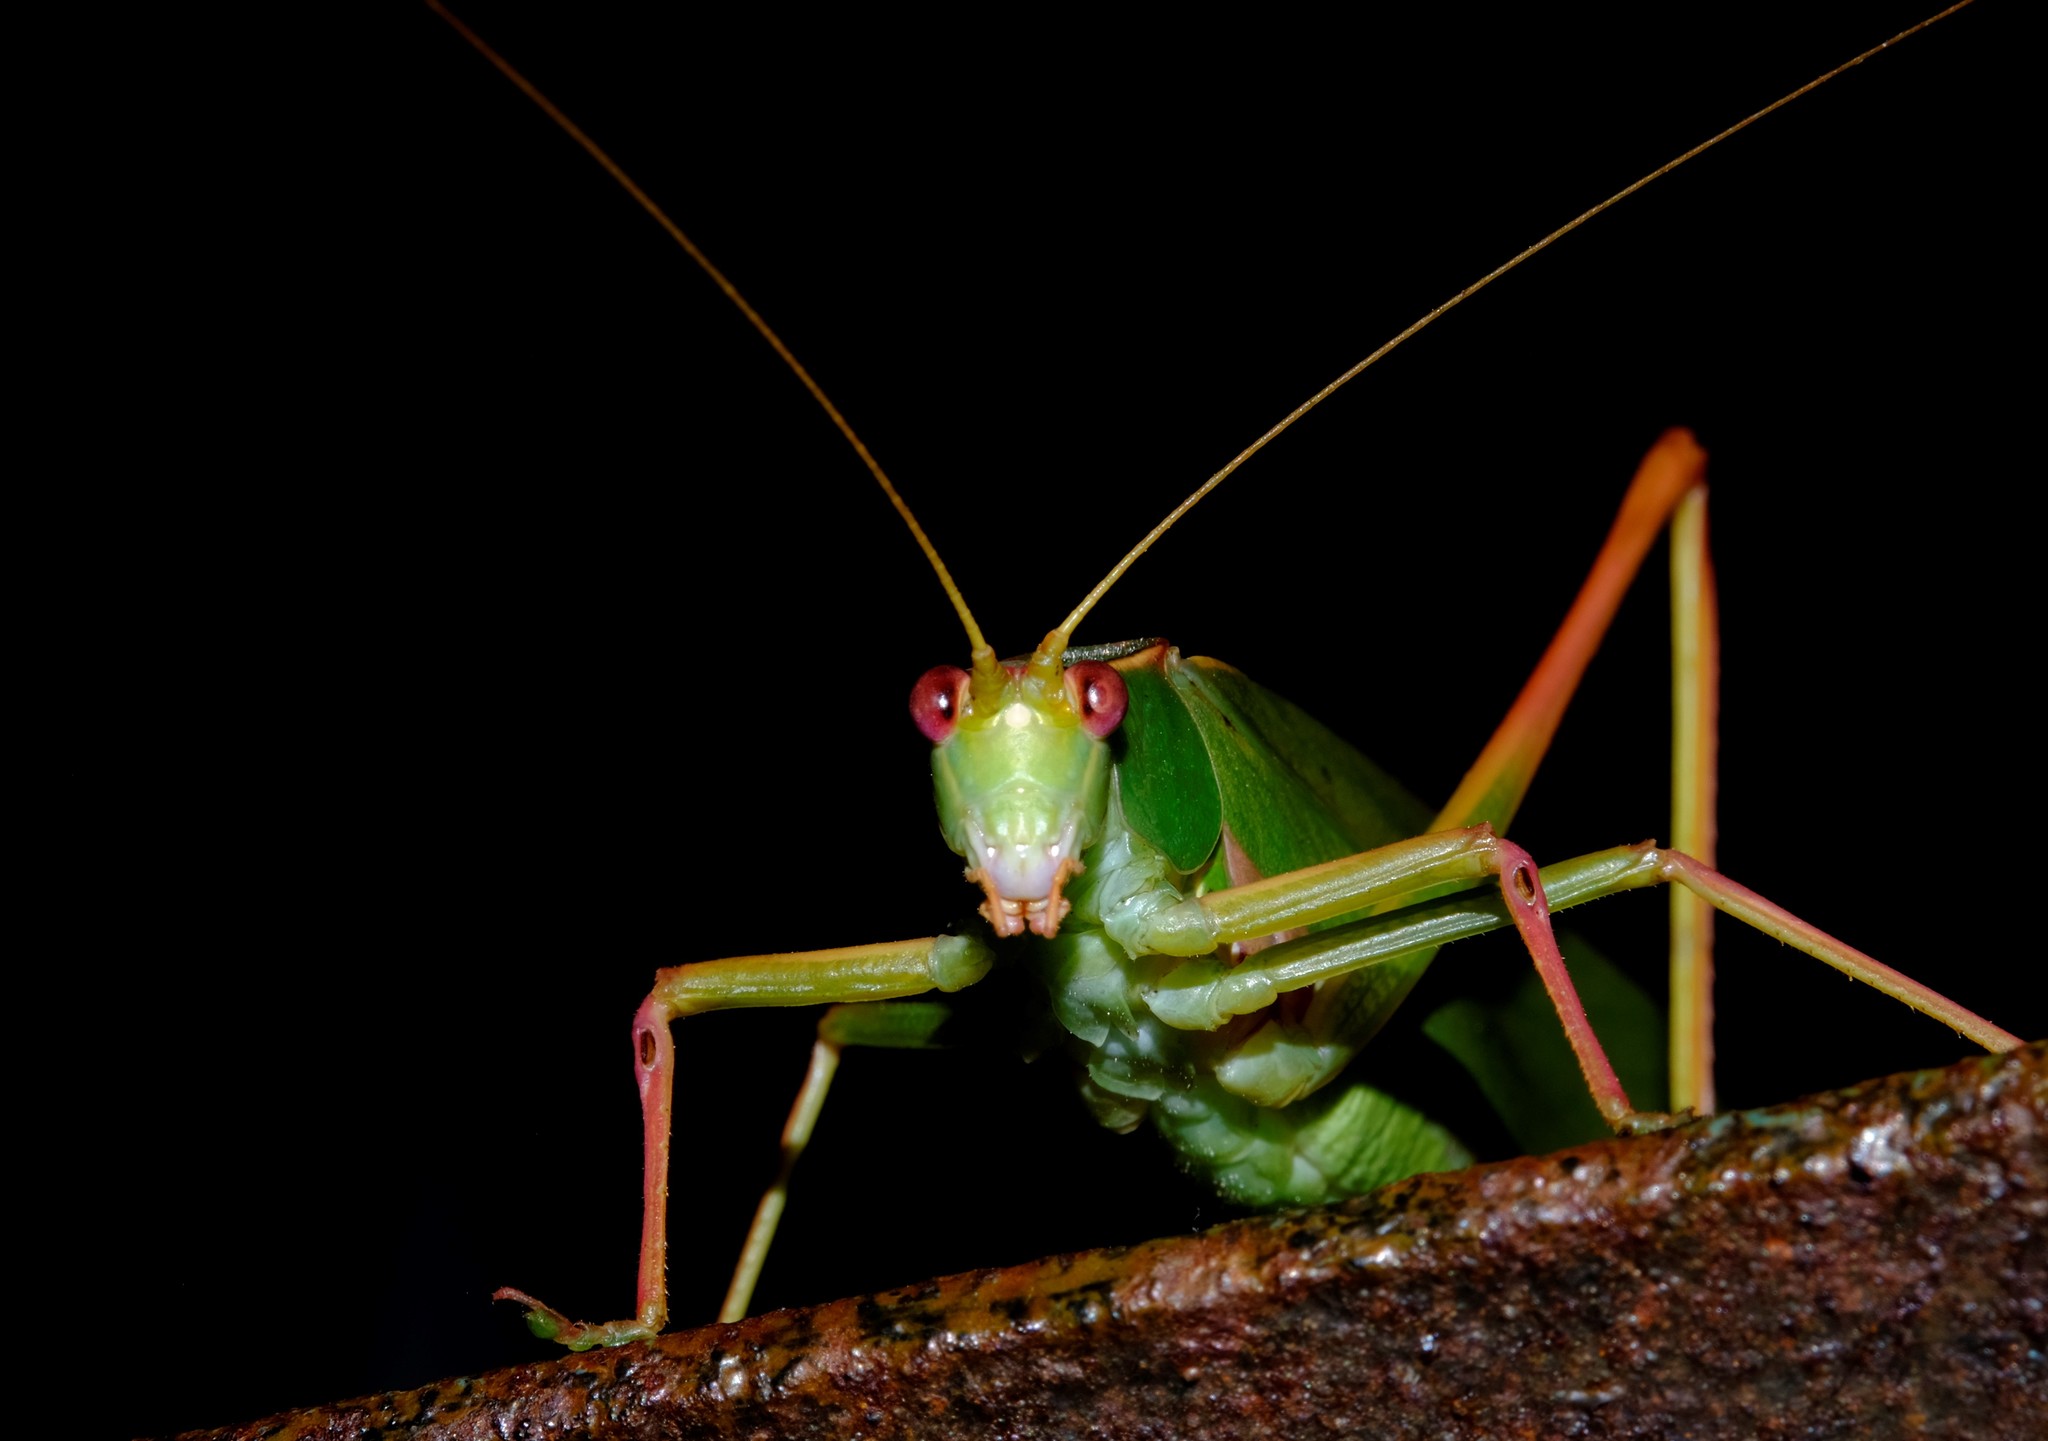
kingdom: Animalia
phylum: Arthropoda
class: Insecta
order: Orthoptera
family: Tettigoniidae
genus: Torbia
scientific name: Torbia viridissima
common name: Non-predaceous gum leaf katydid
